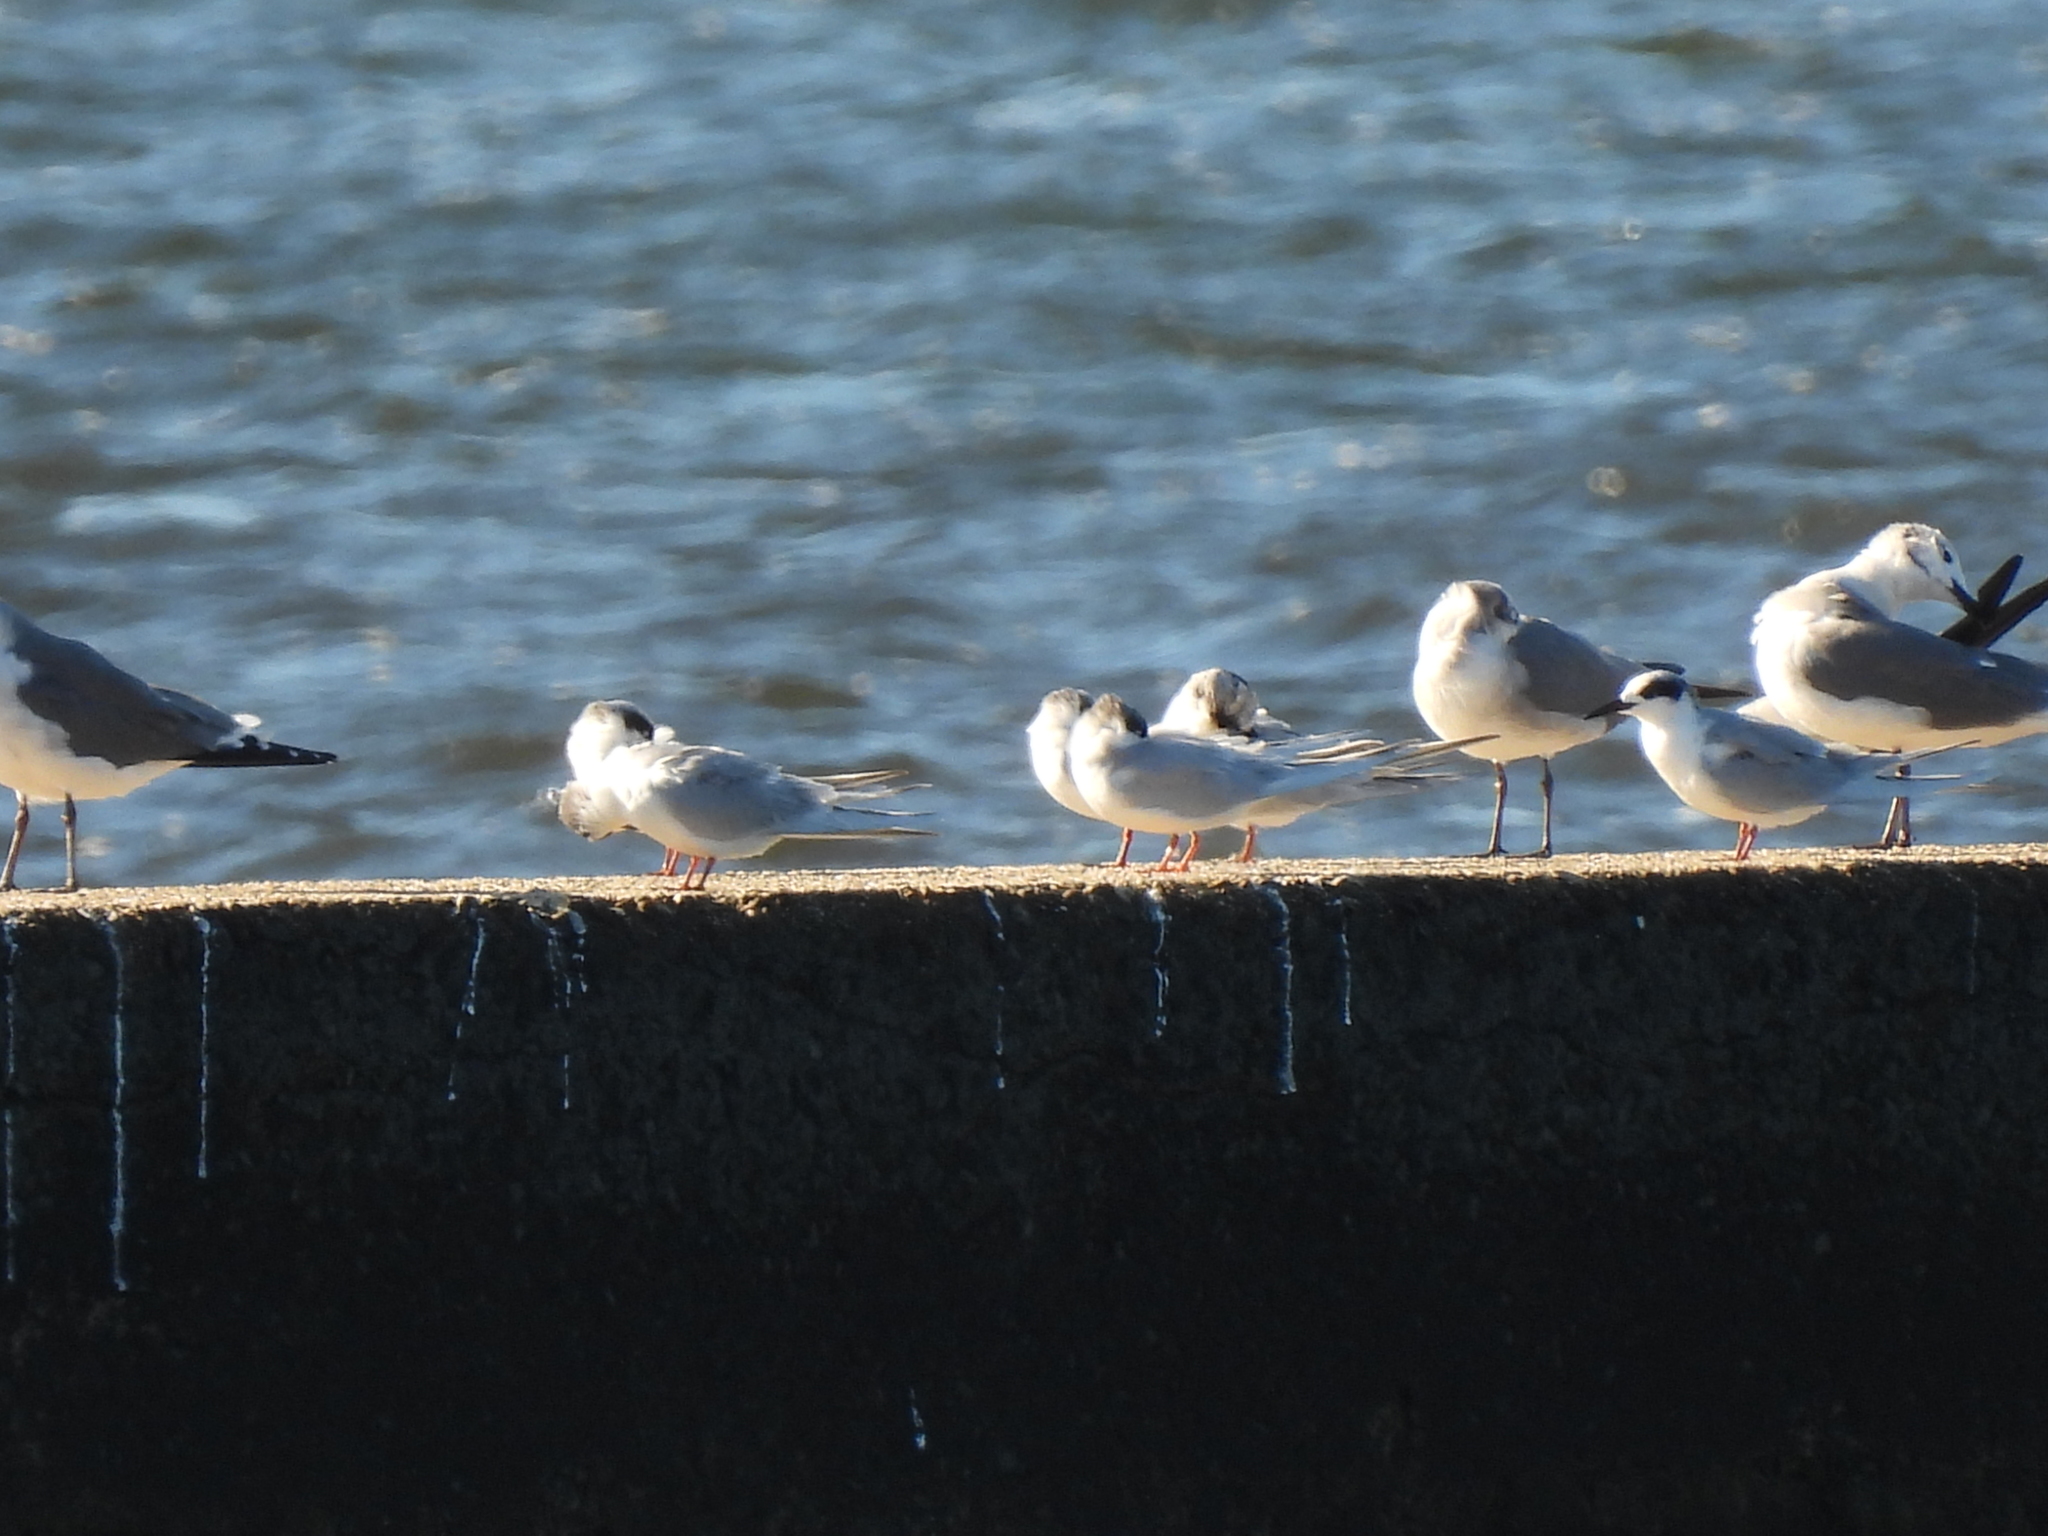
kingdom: Animalia
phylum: Chordata
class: Aves
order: Charadriiformes
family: Laridae
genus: Sterna
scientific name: Sterna forsteri
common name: Forster's tern
